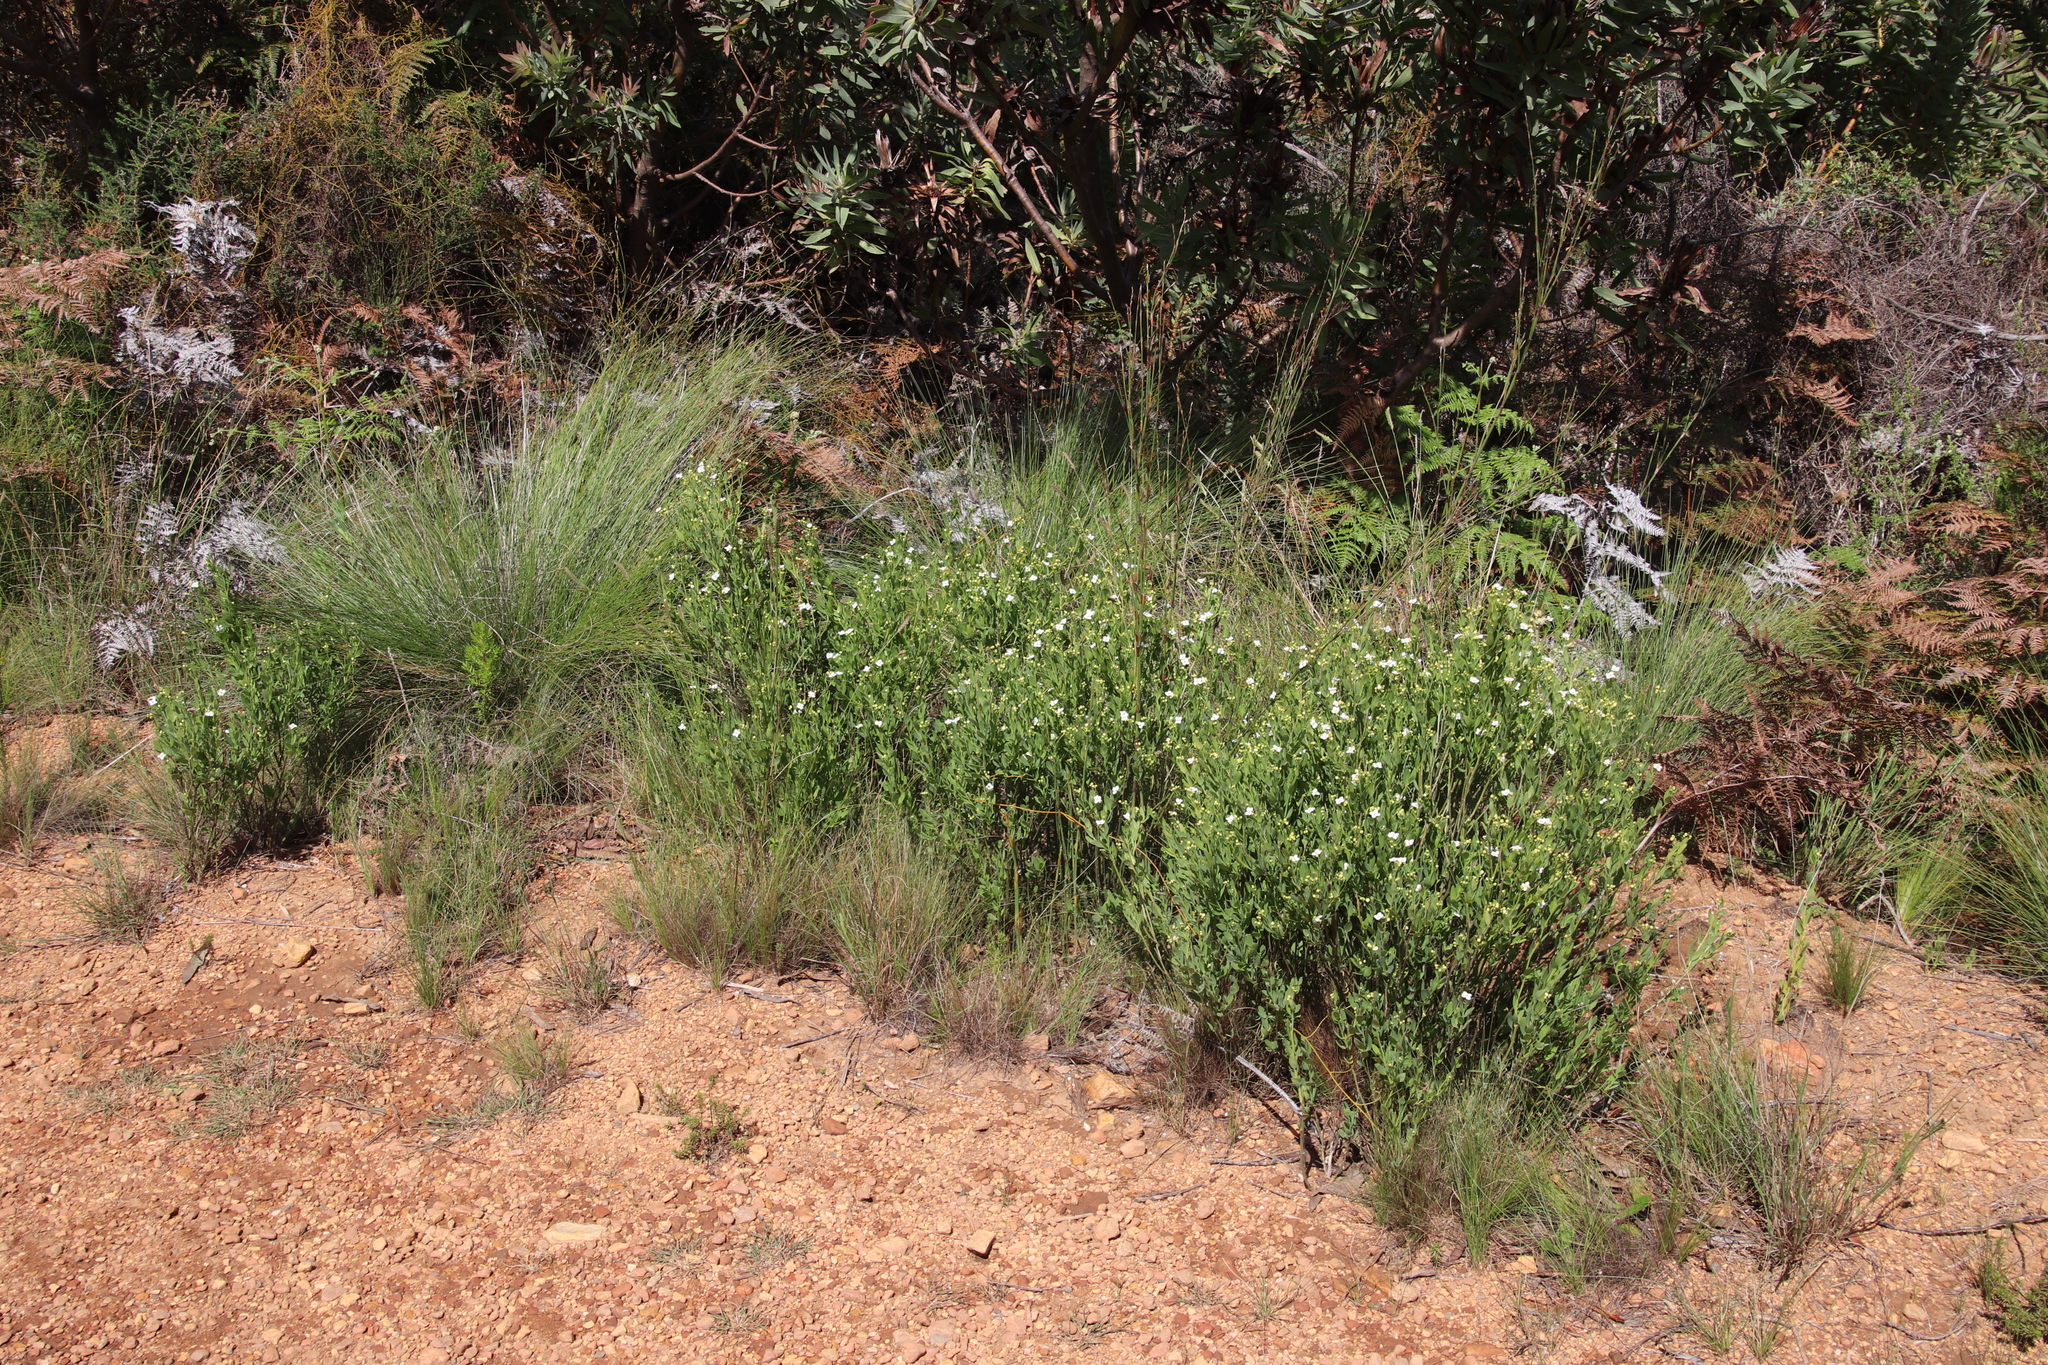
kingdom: Plantae
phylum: Tracheophyta
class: Magnoliopsida
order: Solanales
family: Montiniaceae
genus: Montinia
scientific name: Montinia caryophyllacea
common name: Wild clove-bush
